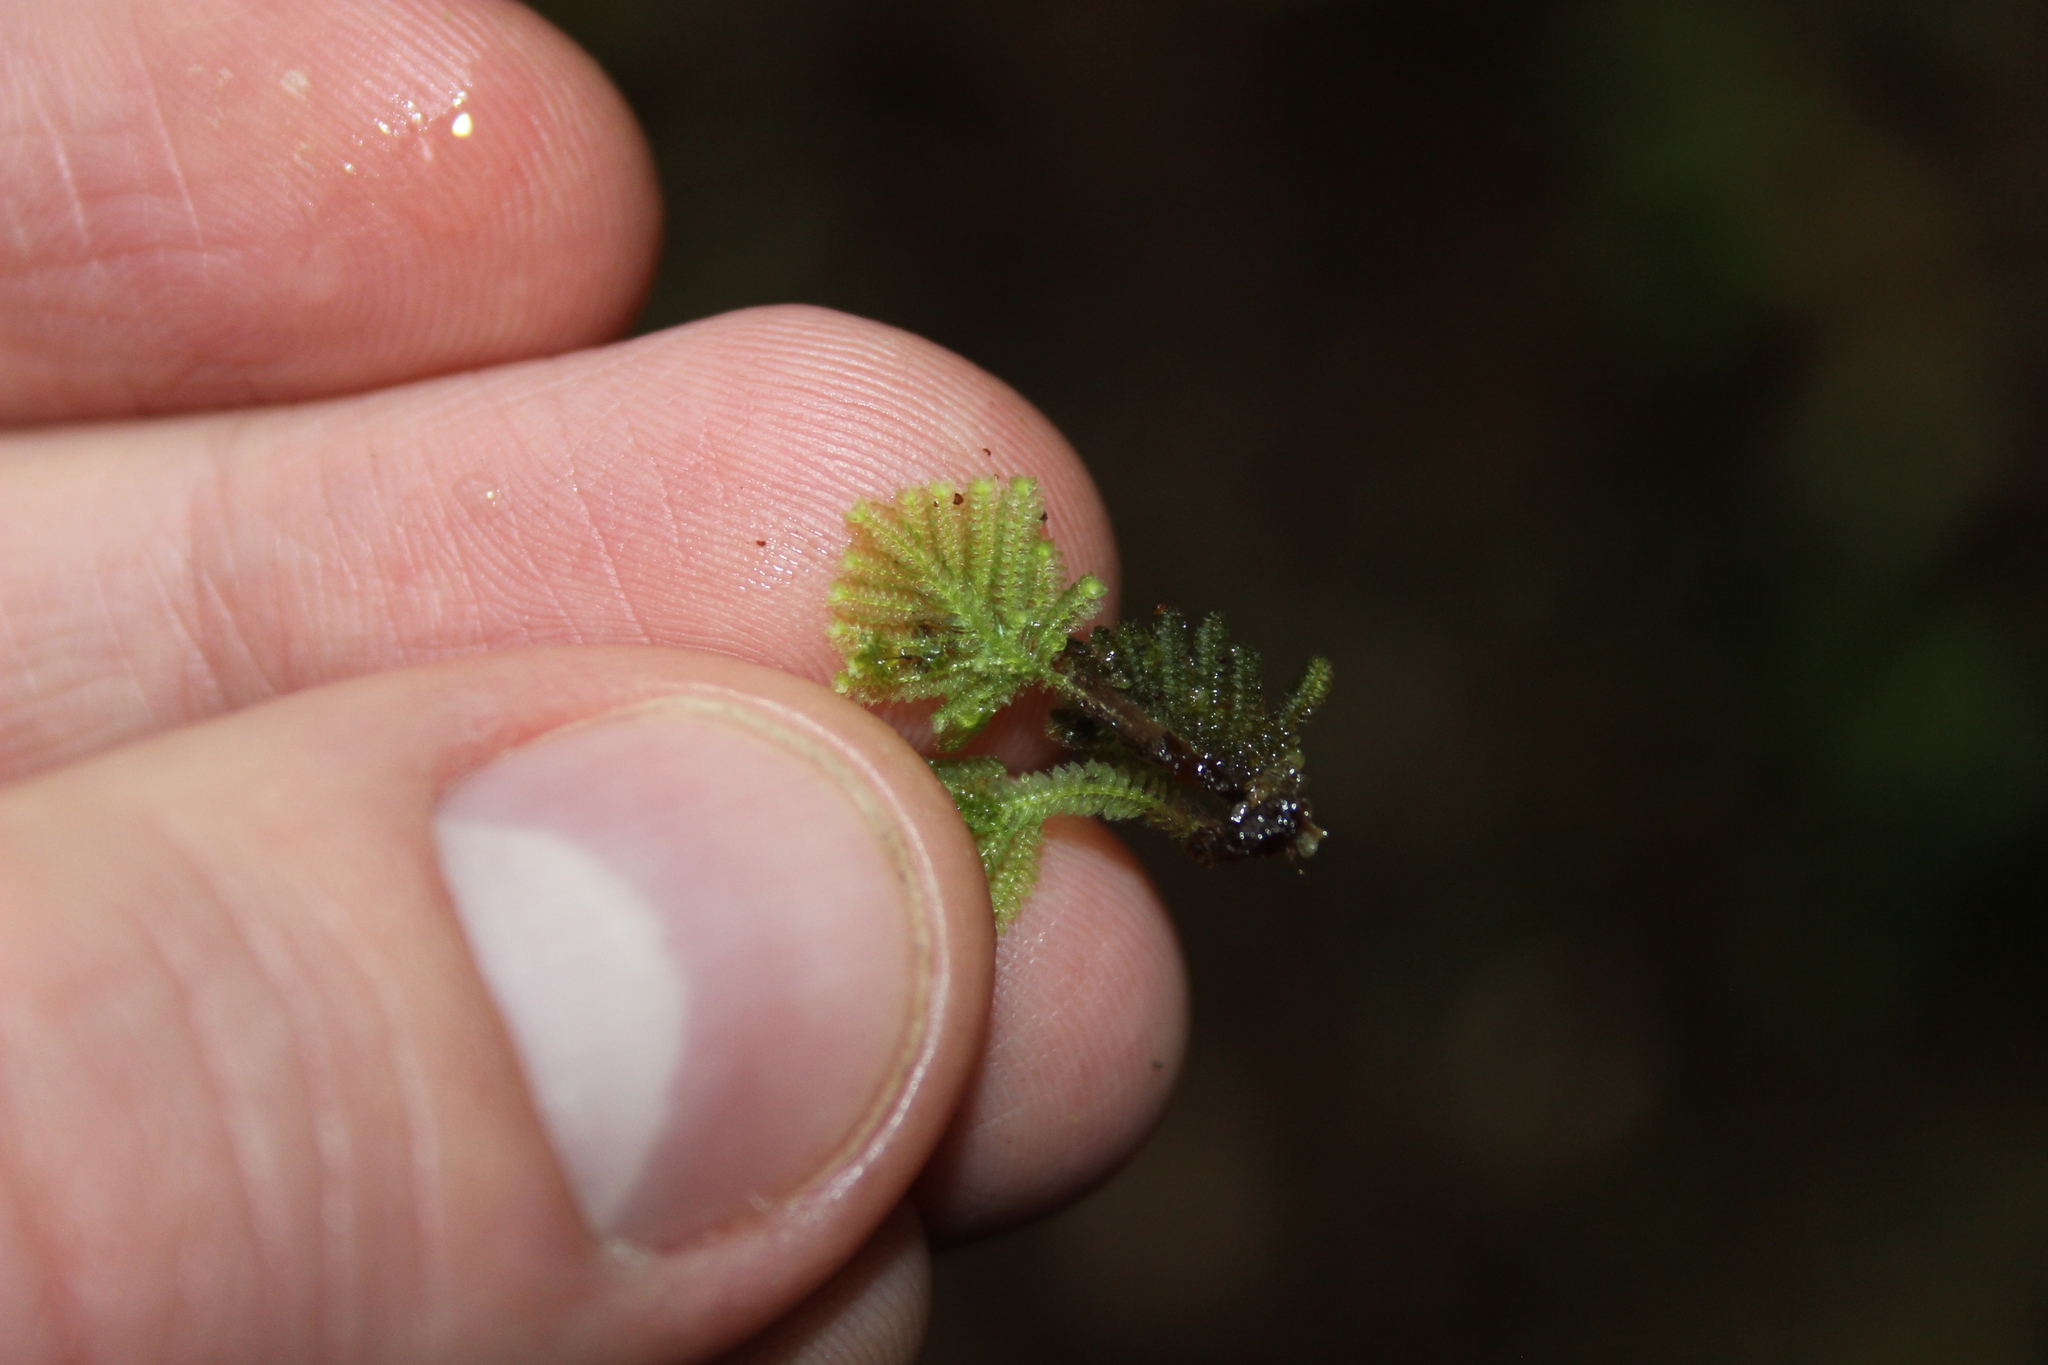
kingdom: Plantae
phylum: Bryophyta
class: Bryopsida
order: Hypopterygiales
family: Hypopterygiaceae
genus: Catharomnion
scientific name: Catharomnion ciliatum
